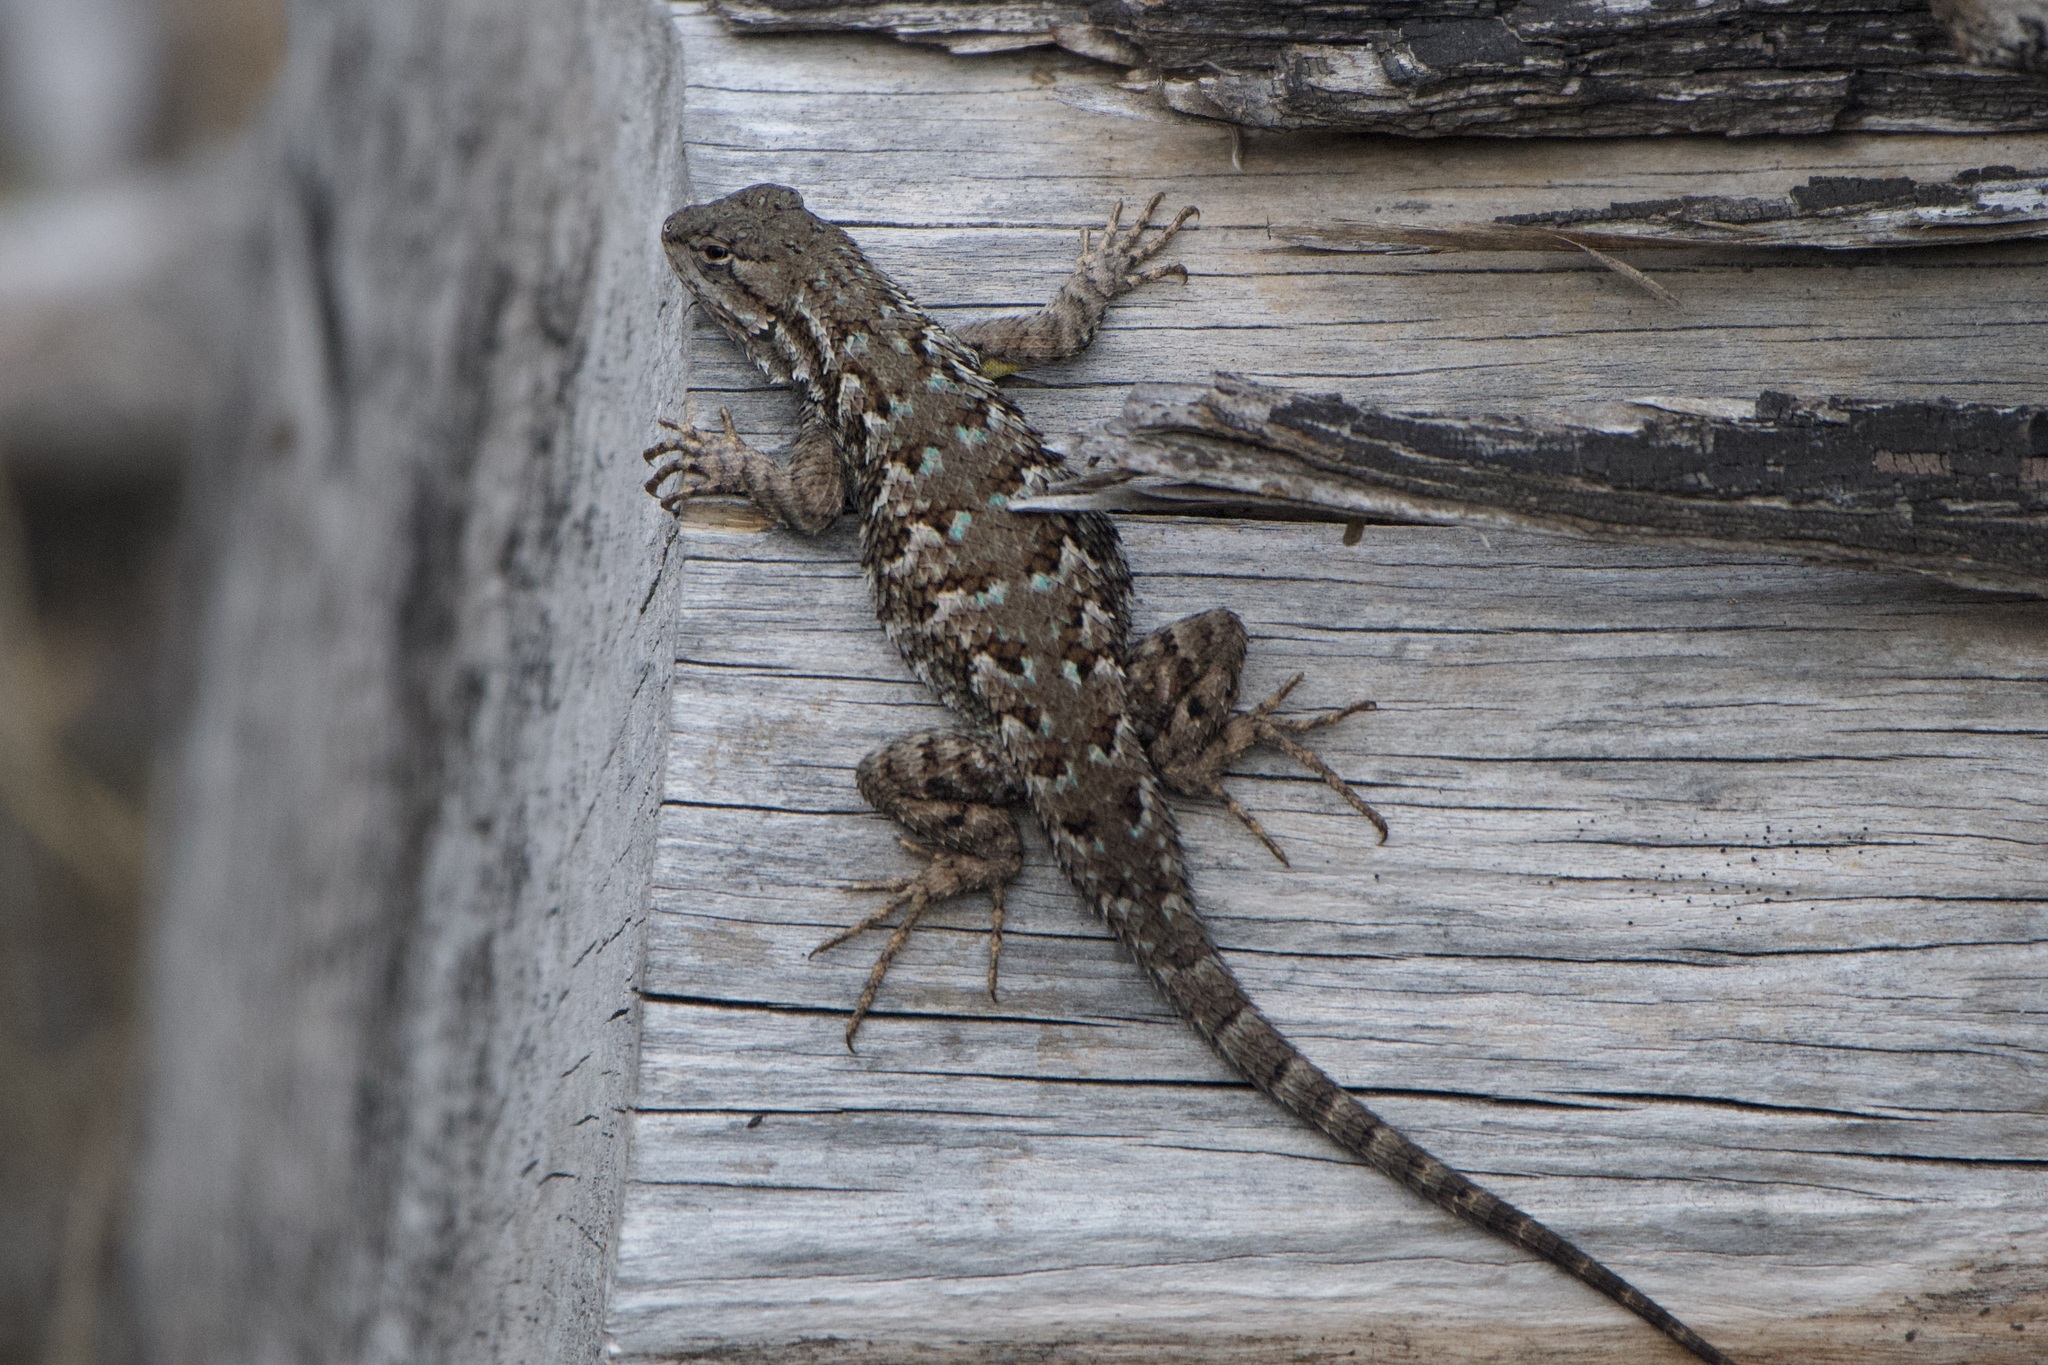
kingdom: Animalia
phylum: Chordata
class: Squamata
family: Phrynosomatidae
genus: Sceloporus
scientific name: Sceloporus occidentalis
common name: Western fence lizard
